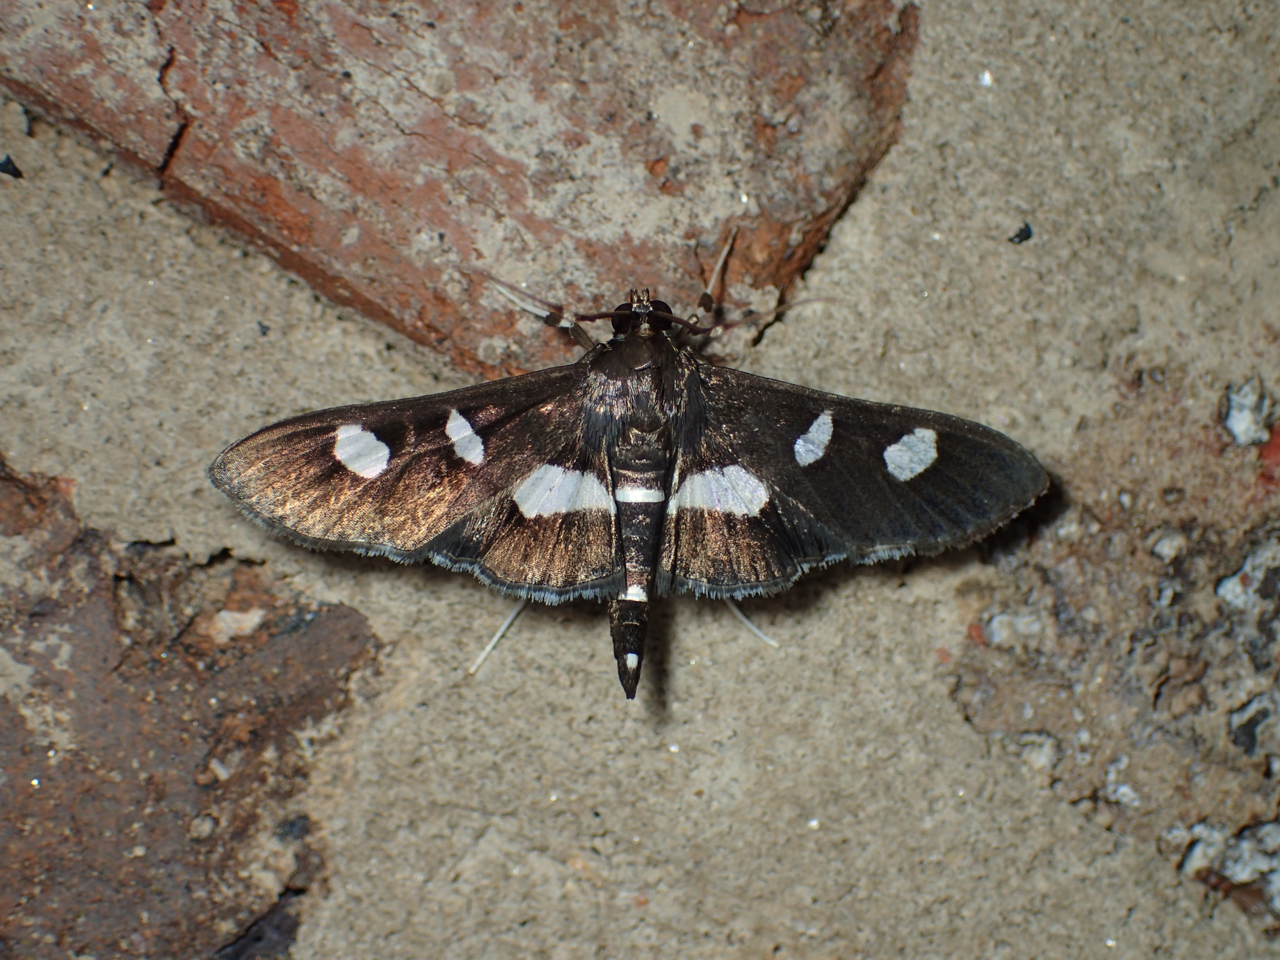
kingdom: Animalia
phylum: Arthropoda
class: Insecta
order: Lepidoptera
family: Crambidae
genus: Desmia
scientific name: Desmia
